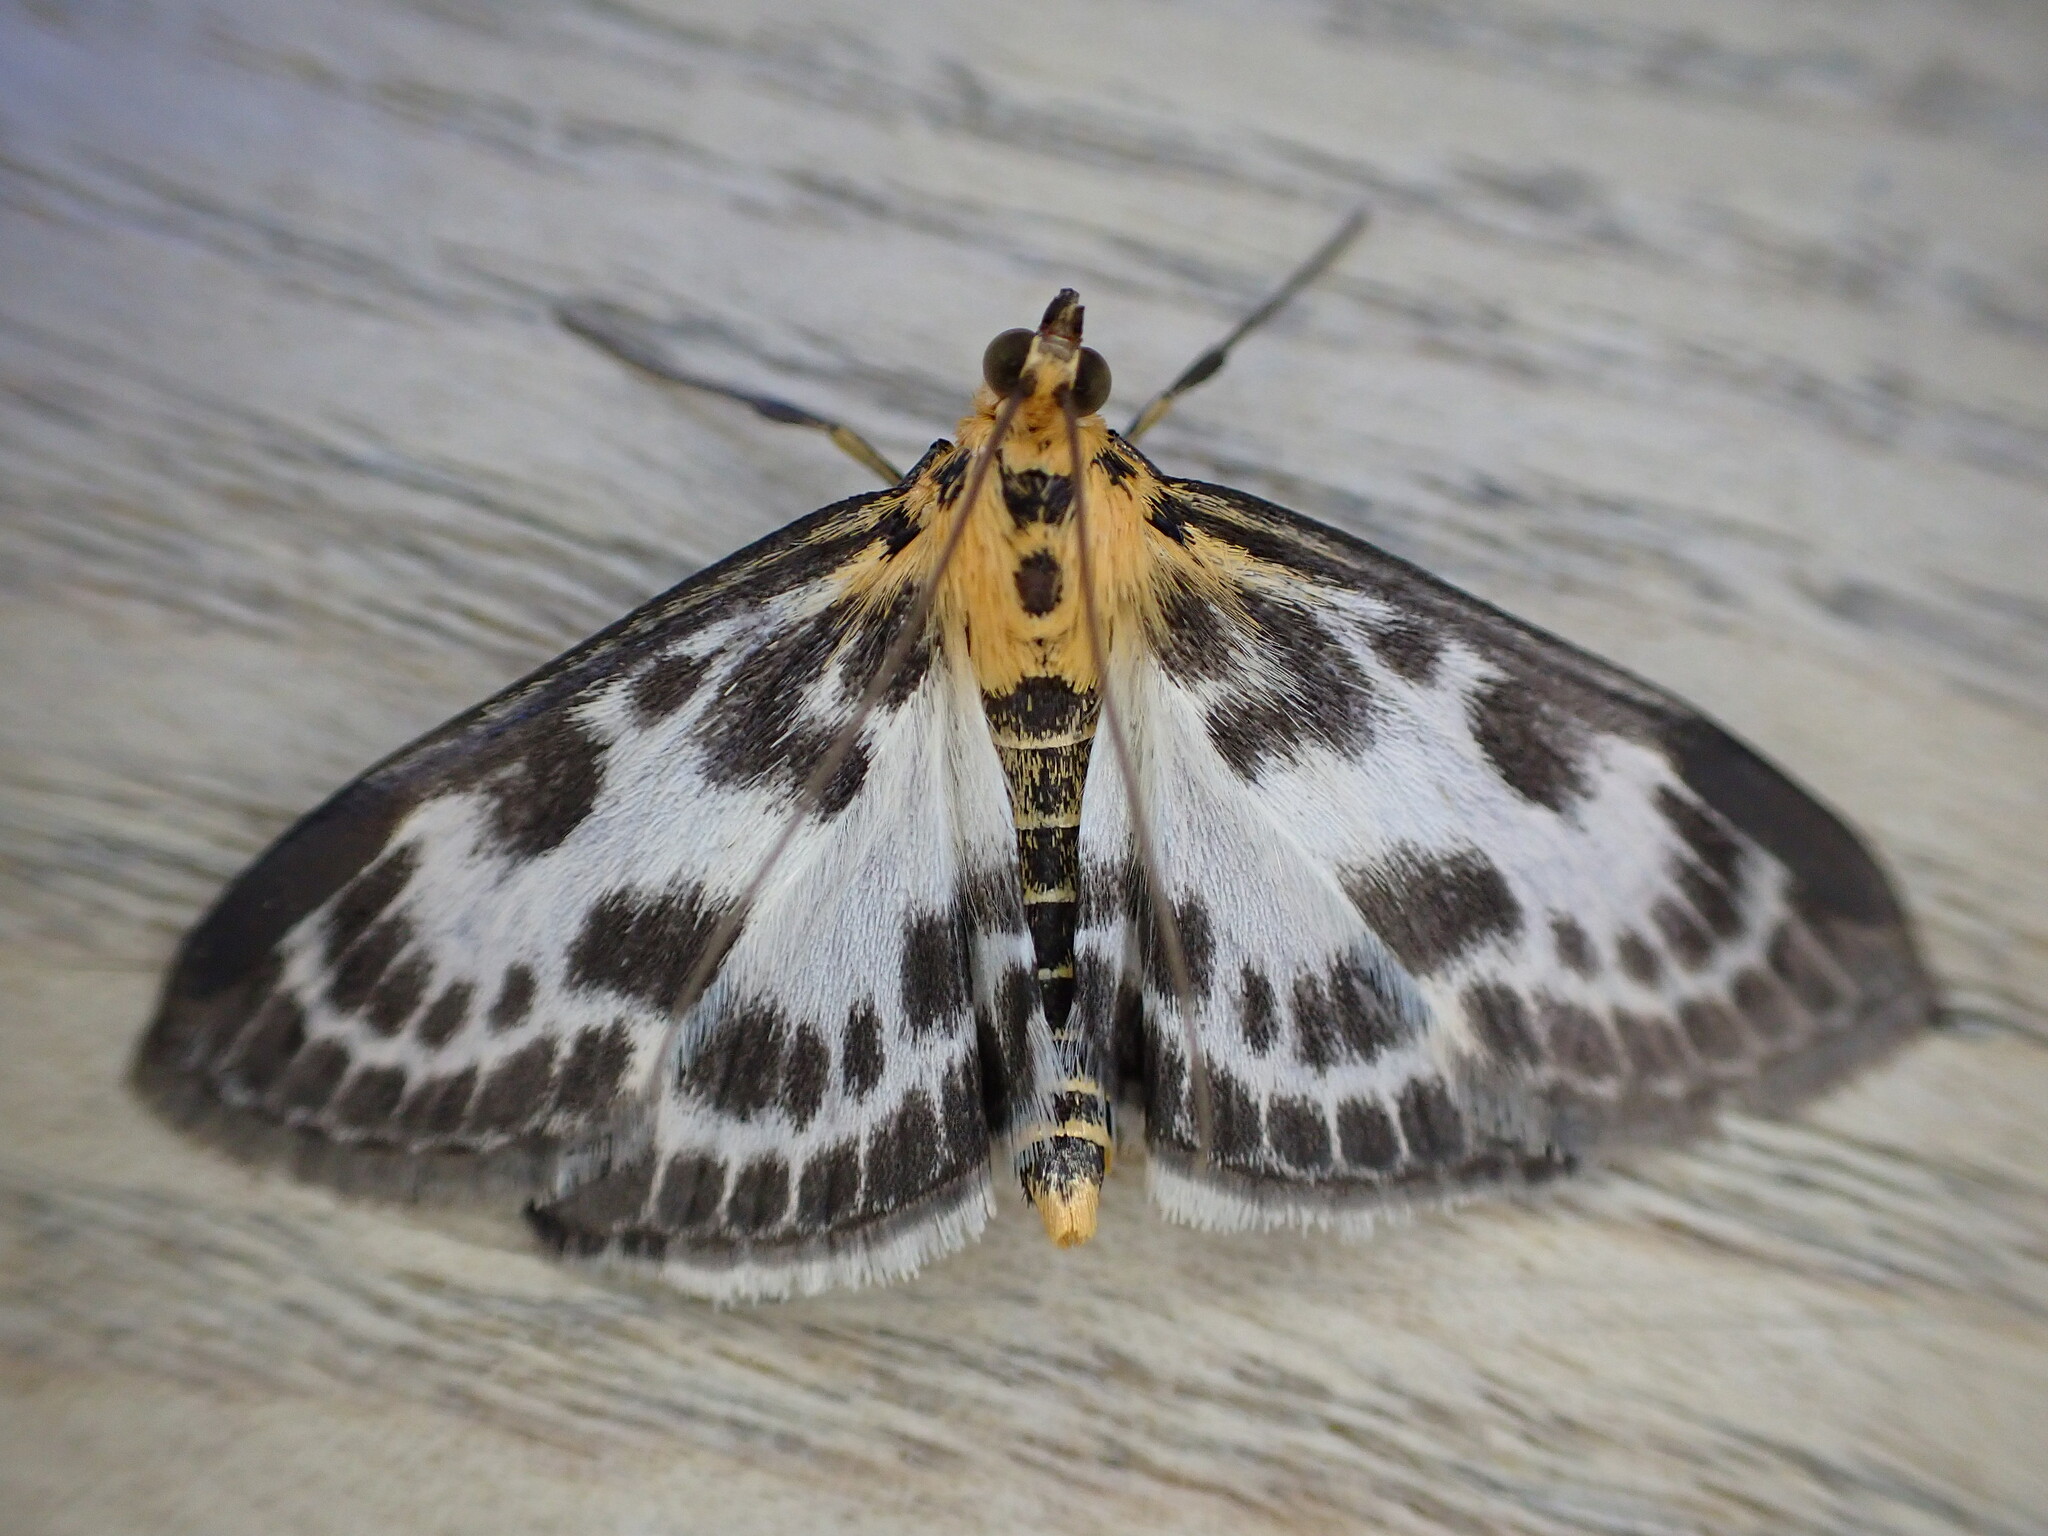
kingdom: Animalia
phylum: Arthropoda
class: Insecta
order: Lepidoptera
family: Crambidae
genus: Anania
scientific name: Anania hortulata
